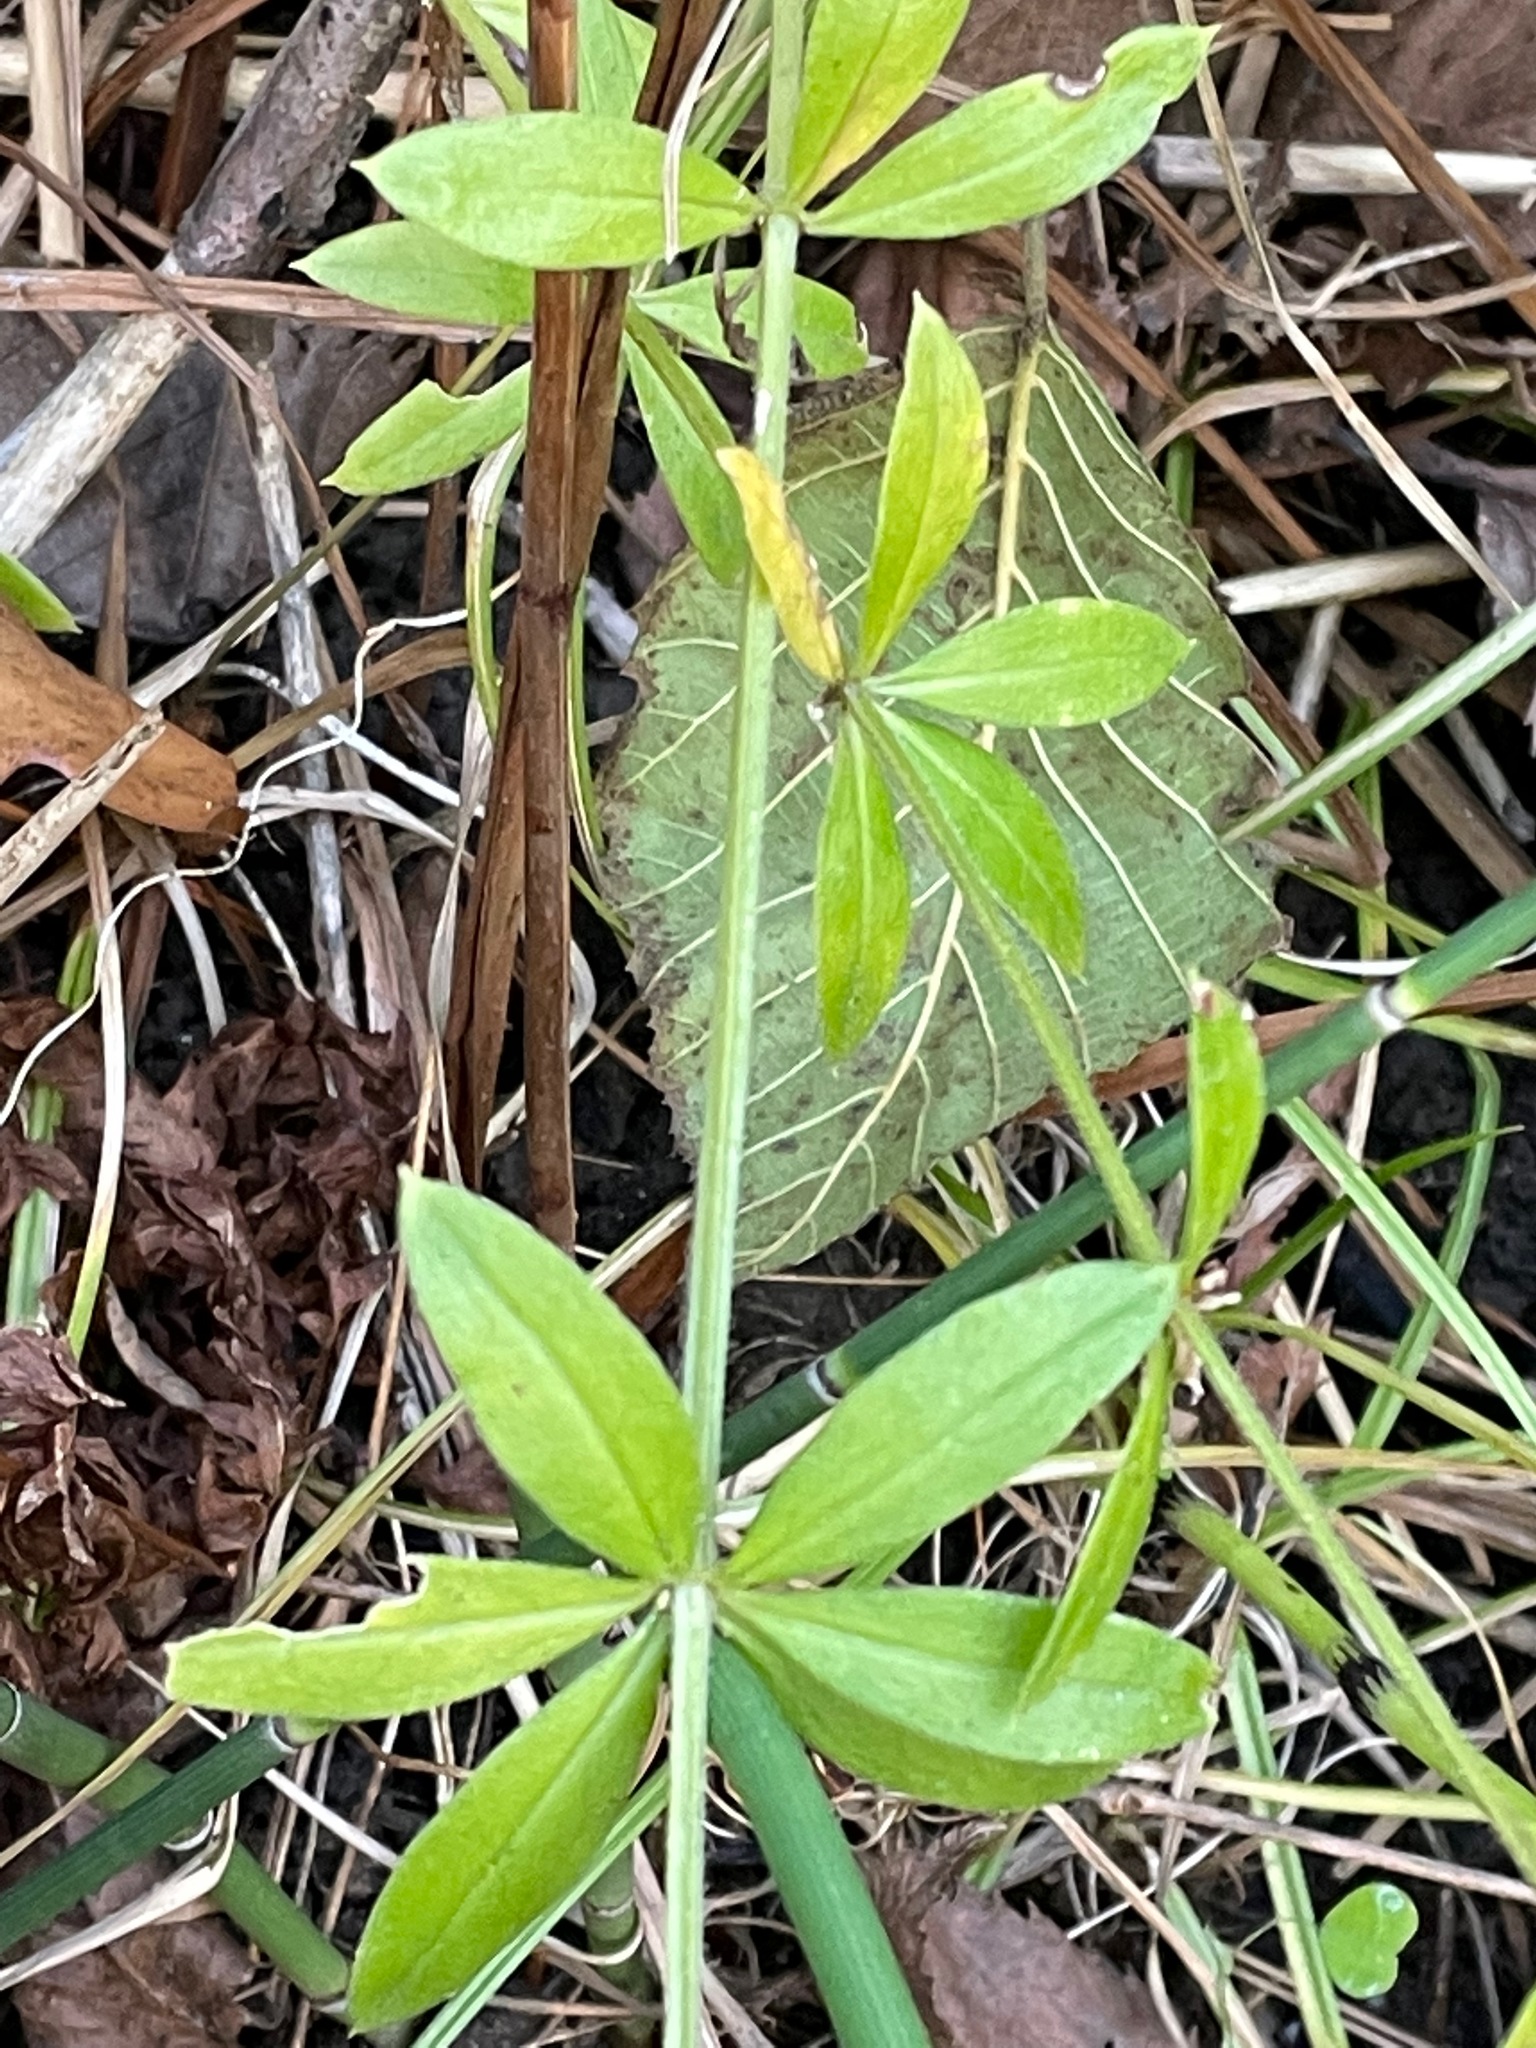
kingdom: Plantae
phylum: Tracheophyta
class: Magnoliopsida
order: Gentianales
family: Rubiaceae
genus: Galium
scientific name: Galium triflorum
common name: Fragrant bedstraw
